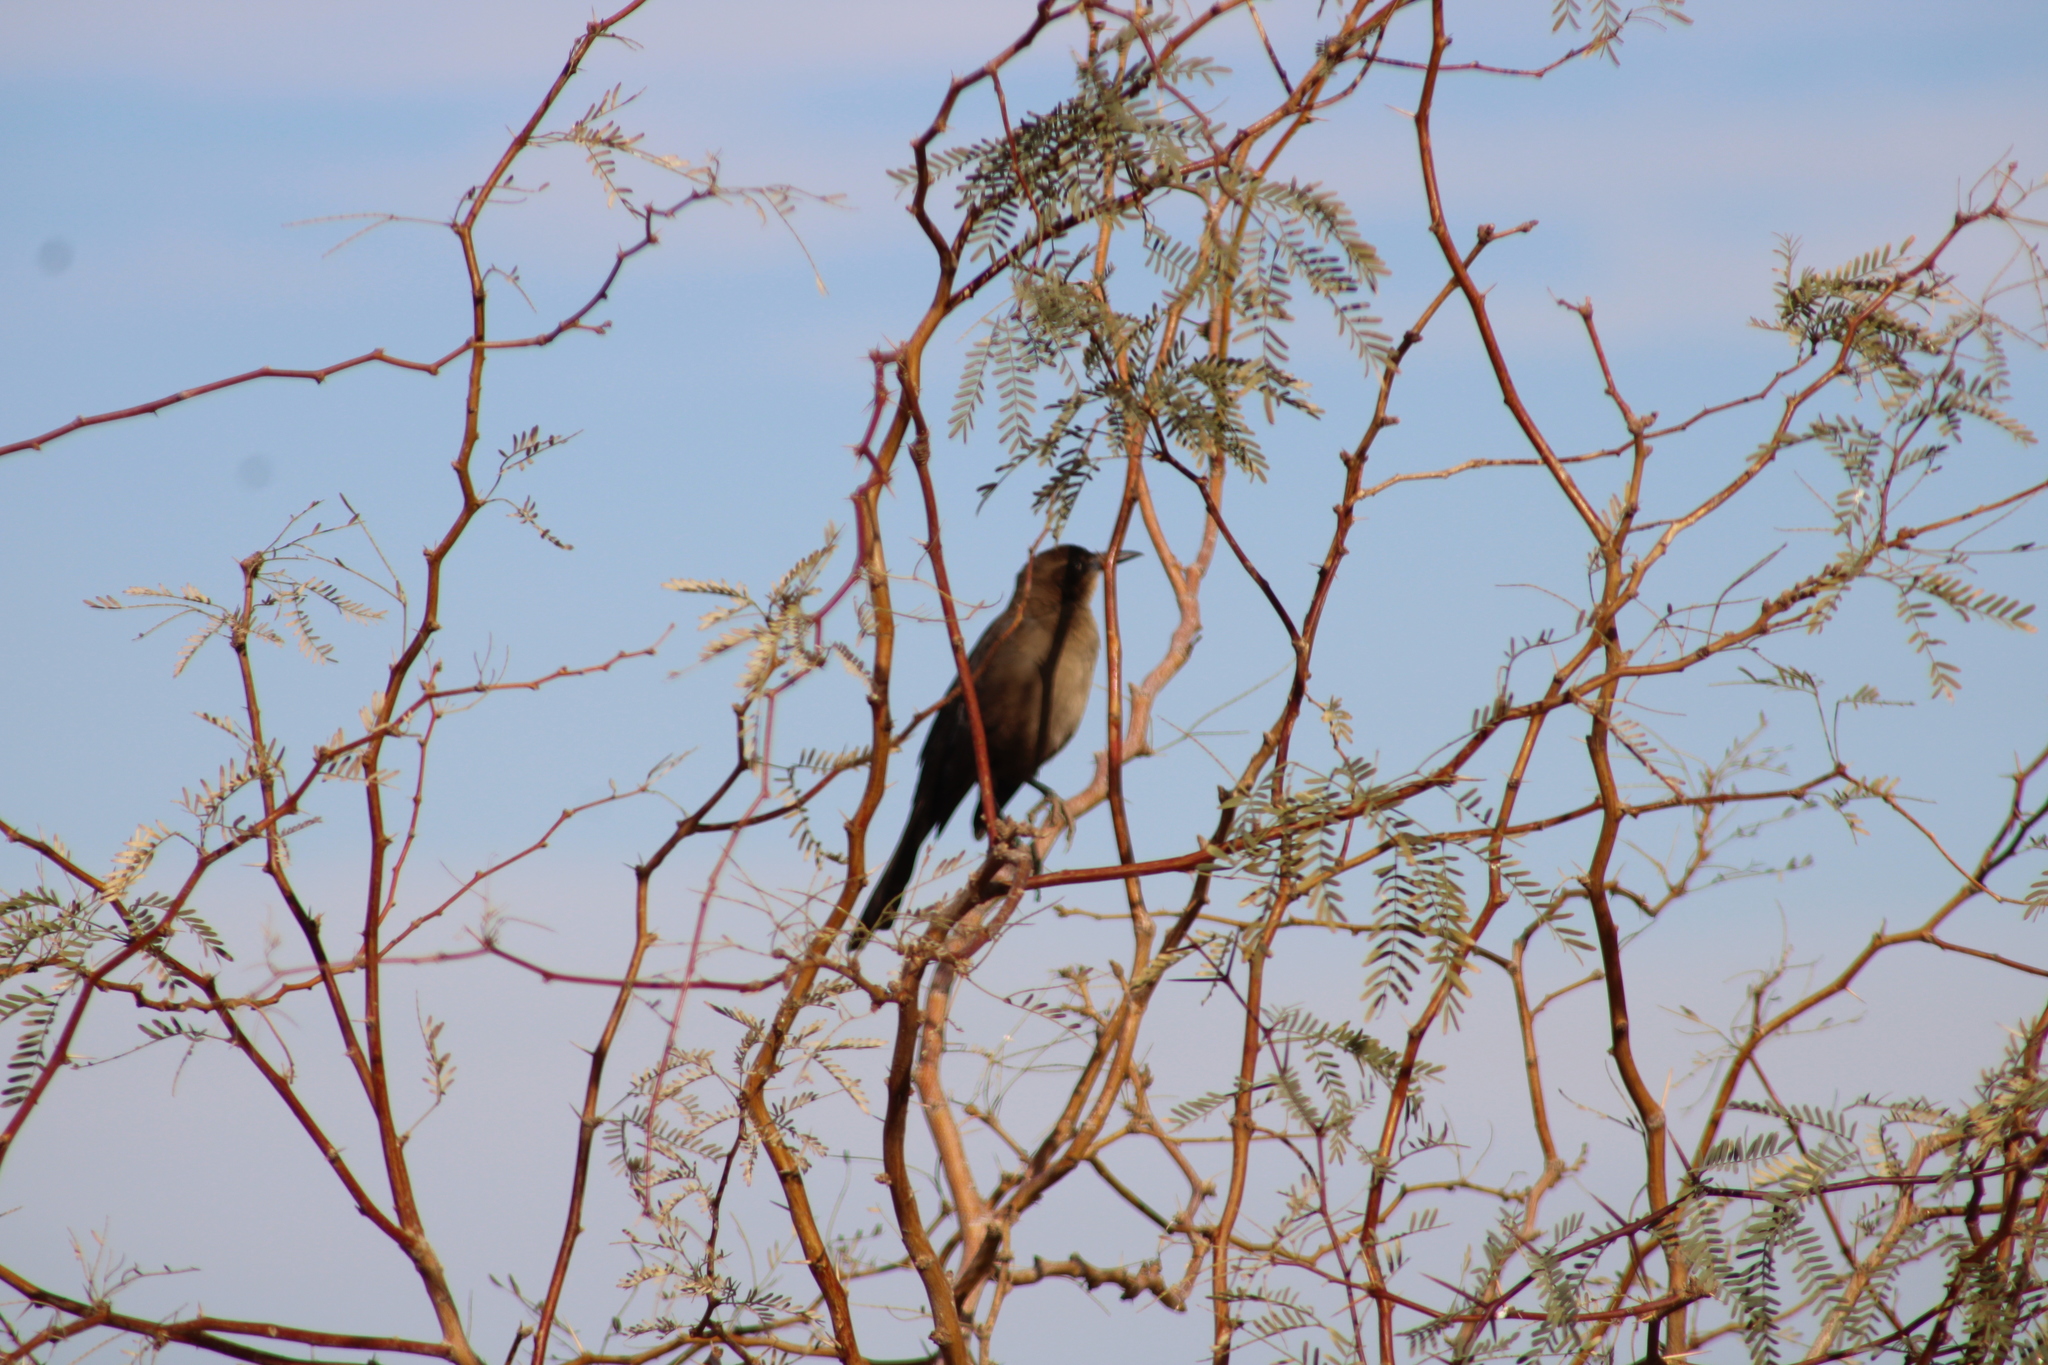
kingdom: Animalia
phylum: Chordata
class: Aves
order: Passeriformes
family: Icteridae
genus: Quiscalus
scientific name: Quiscalus mexicanus
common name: Great-tailed grackle
